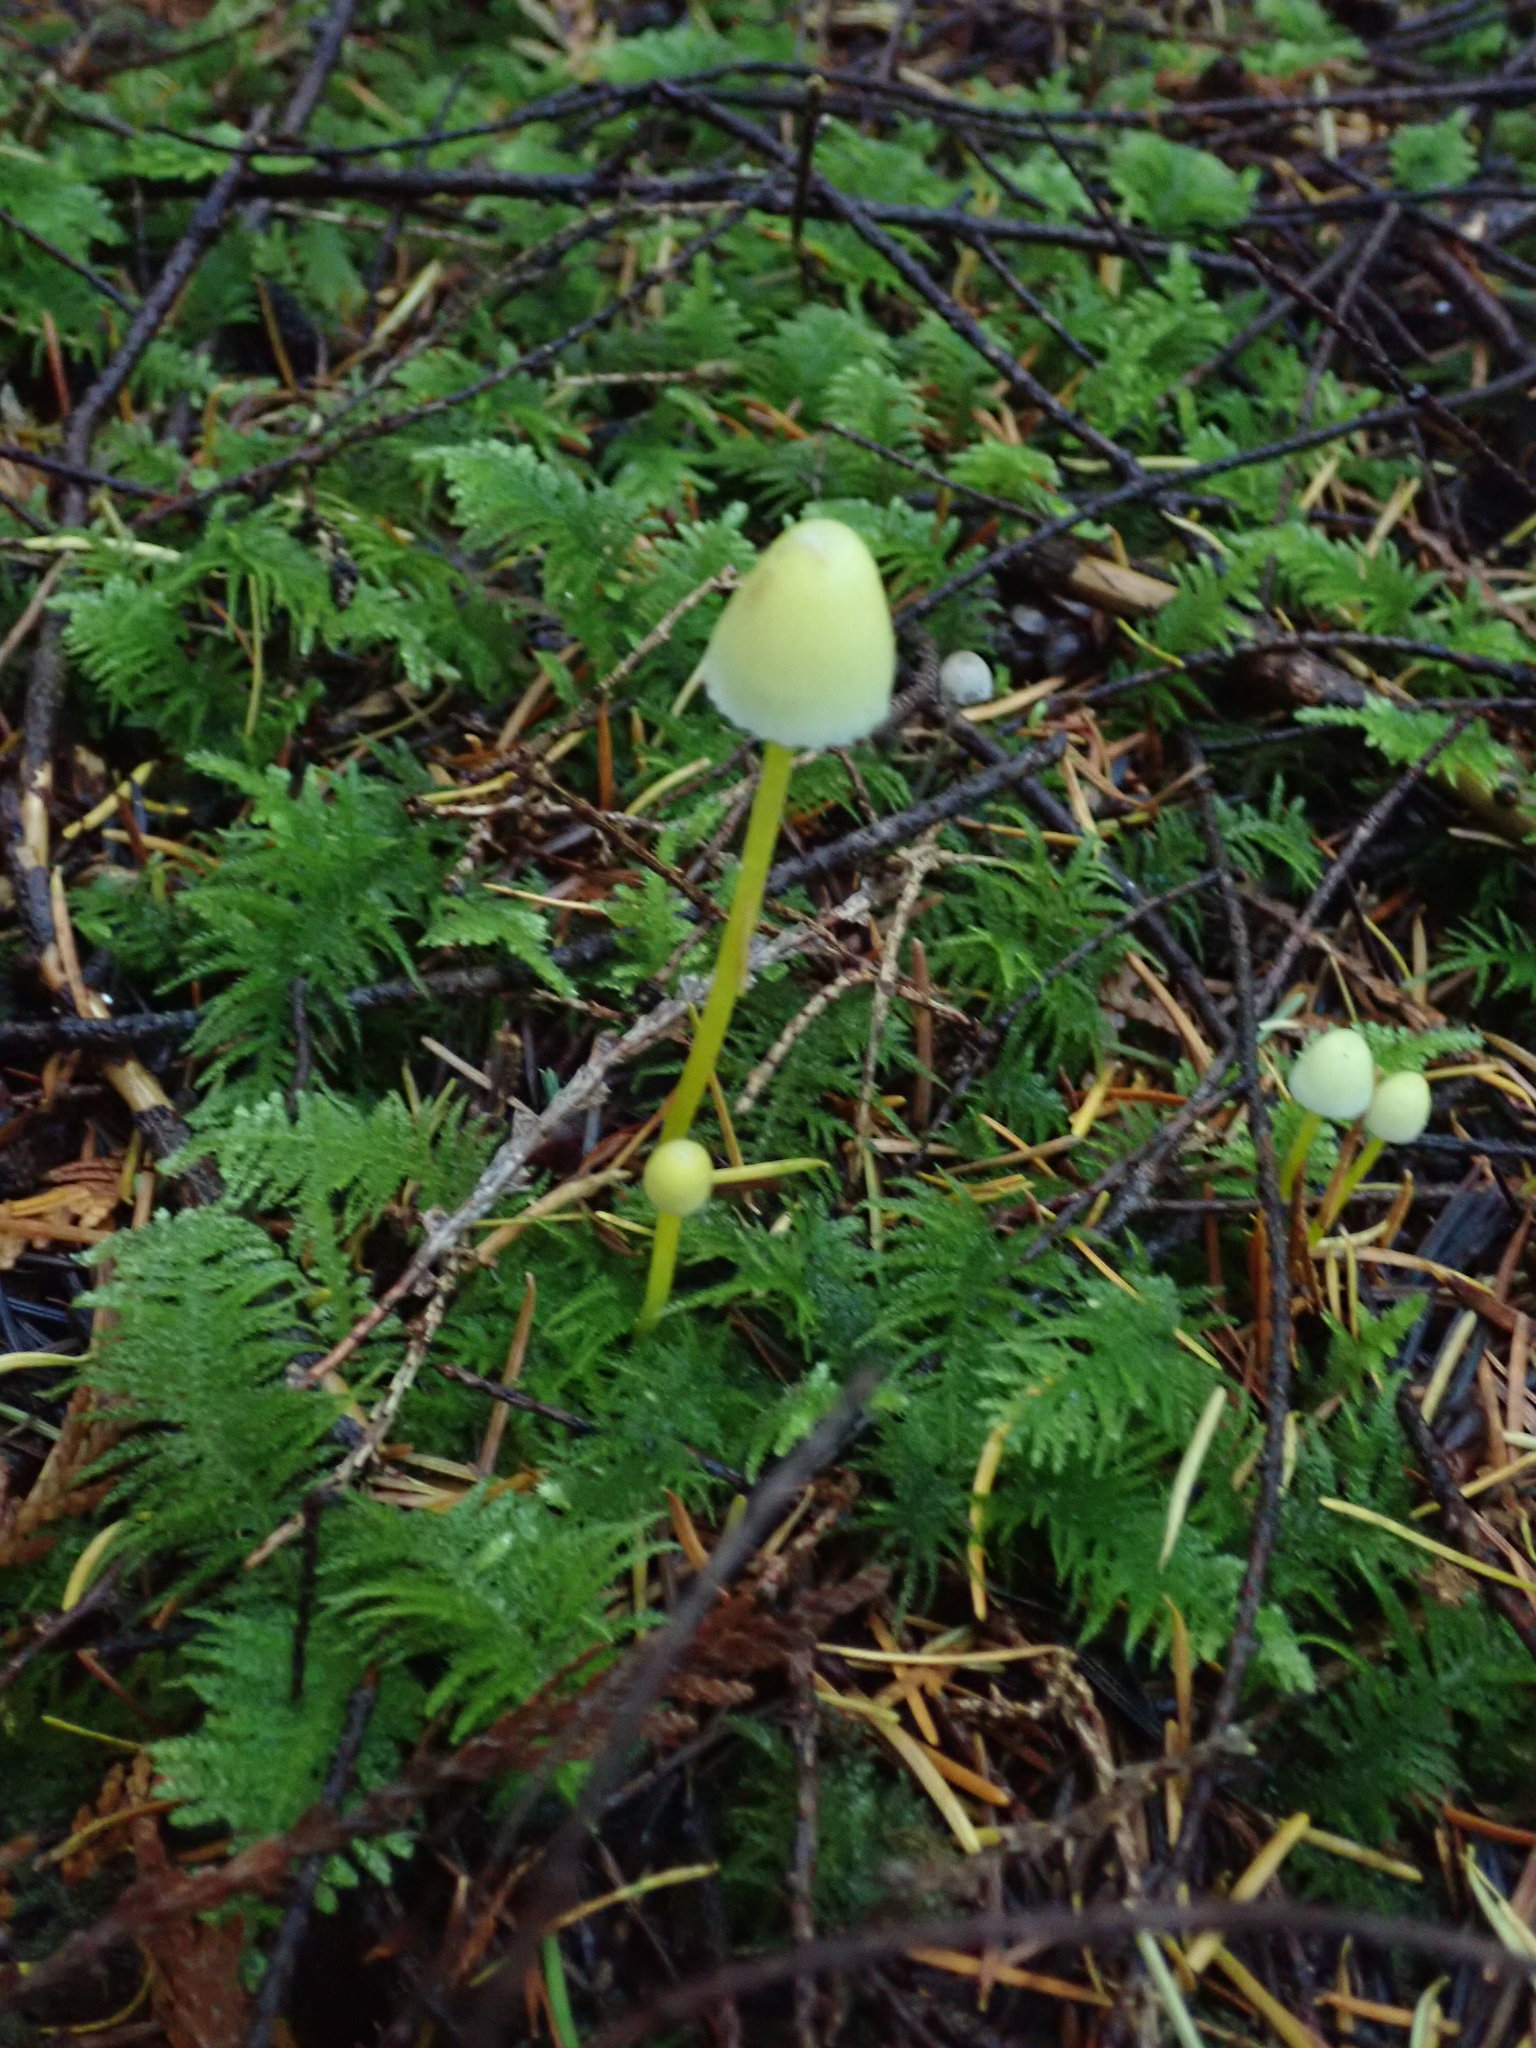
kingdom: Fungi
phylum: Basidiomycota
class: Agaricomycetes
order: Agaricales
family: Mycenaceae
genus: Mycena
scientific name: Mycena epipterygia
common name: Yellowleg bonnet
